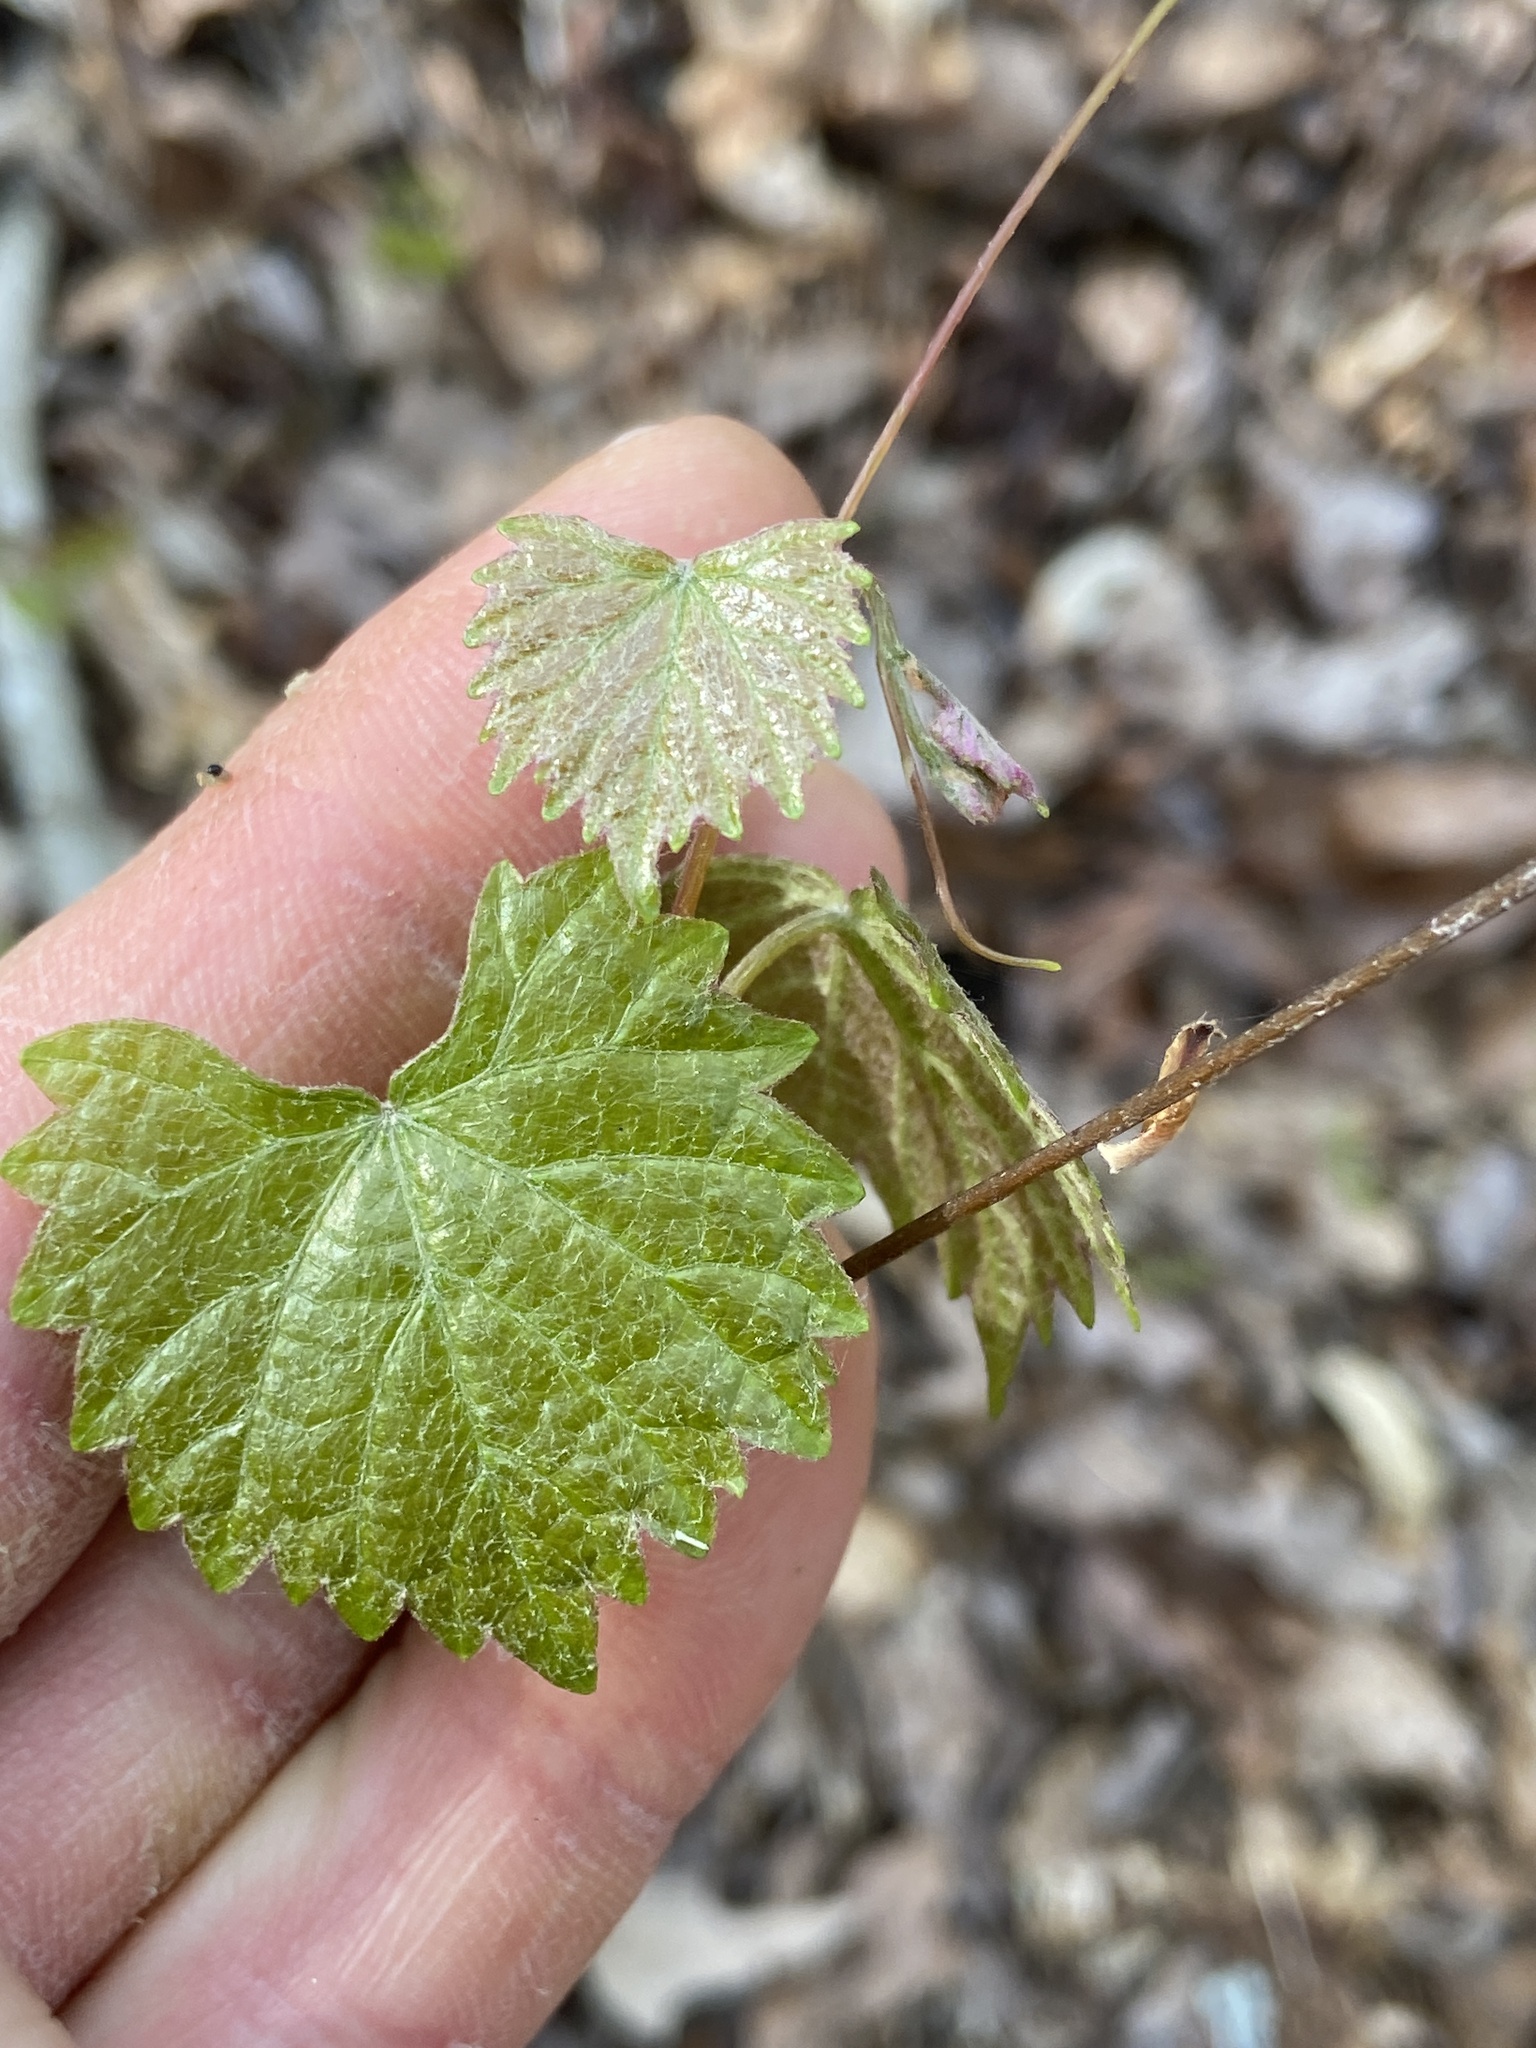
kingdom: Plantae
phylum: Tracheophyta
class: Magnoliopsida
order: Vitales
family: Vitaceae
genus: Vitis
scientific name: Vitis rotundifolia
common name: Muscadine grape
